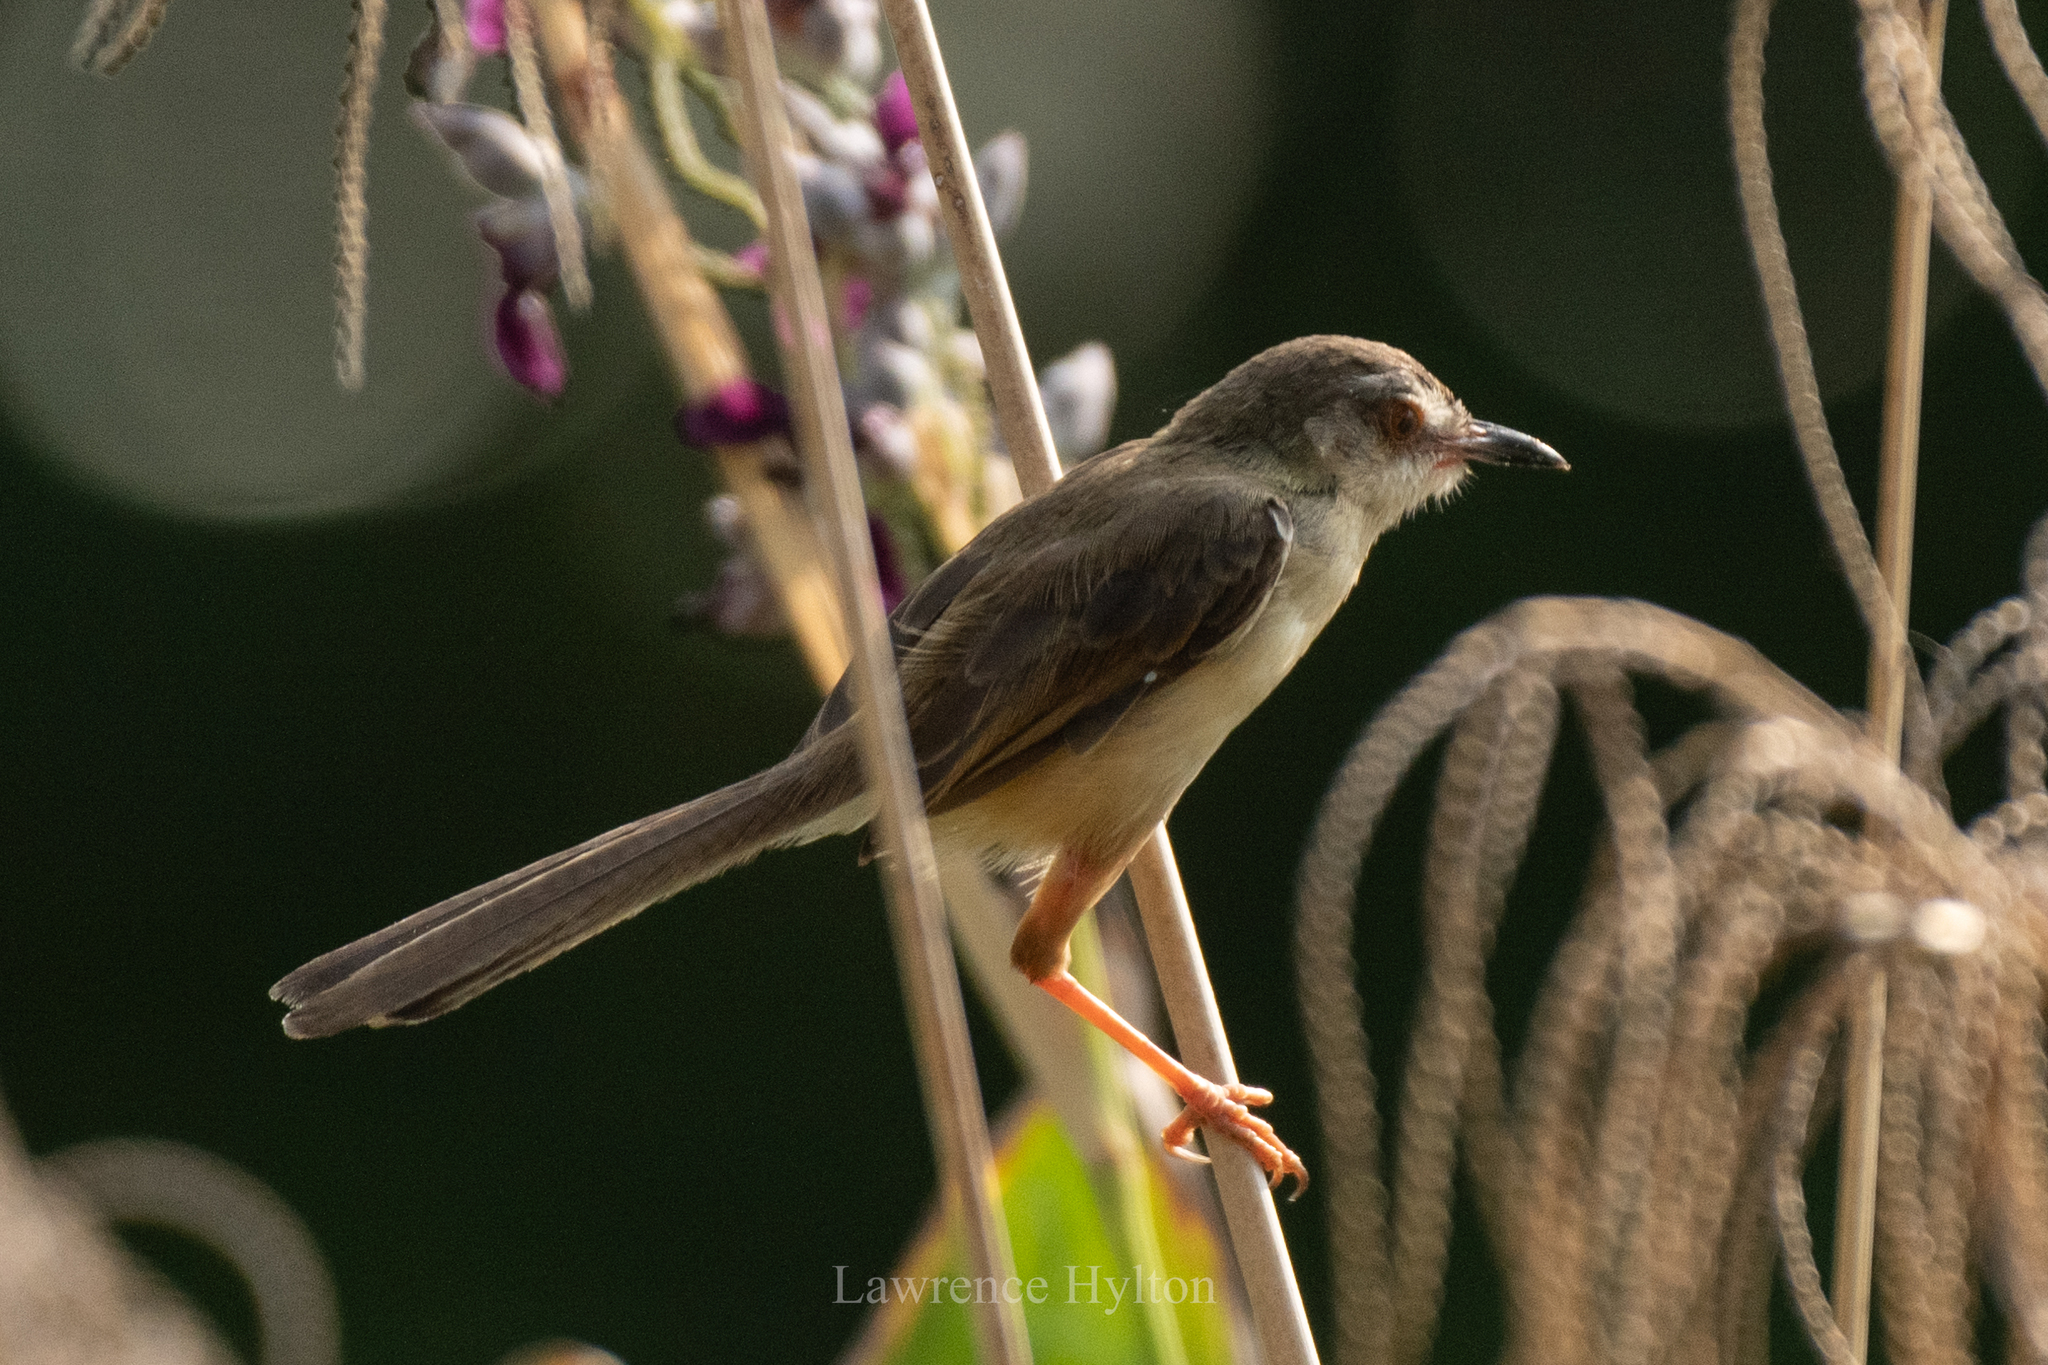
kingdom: Animalia
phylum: Chordata
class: Aves
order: Passeriformes
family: Cisticolidae
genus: Prinia
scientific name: Prinia inornata
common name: Plain prinia
